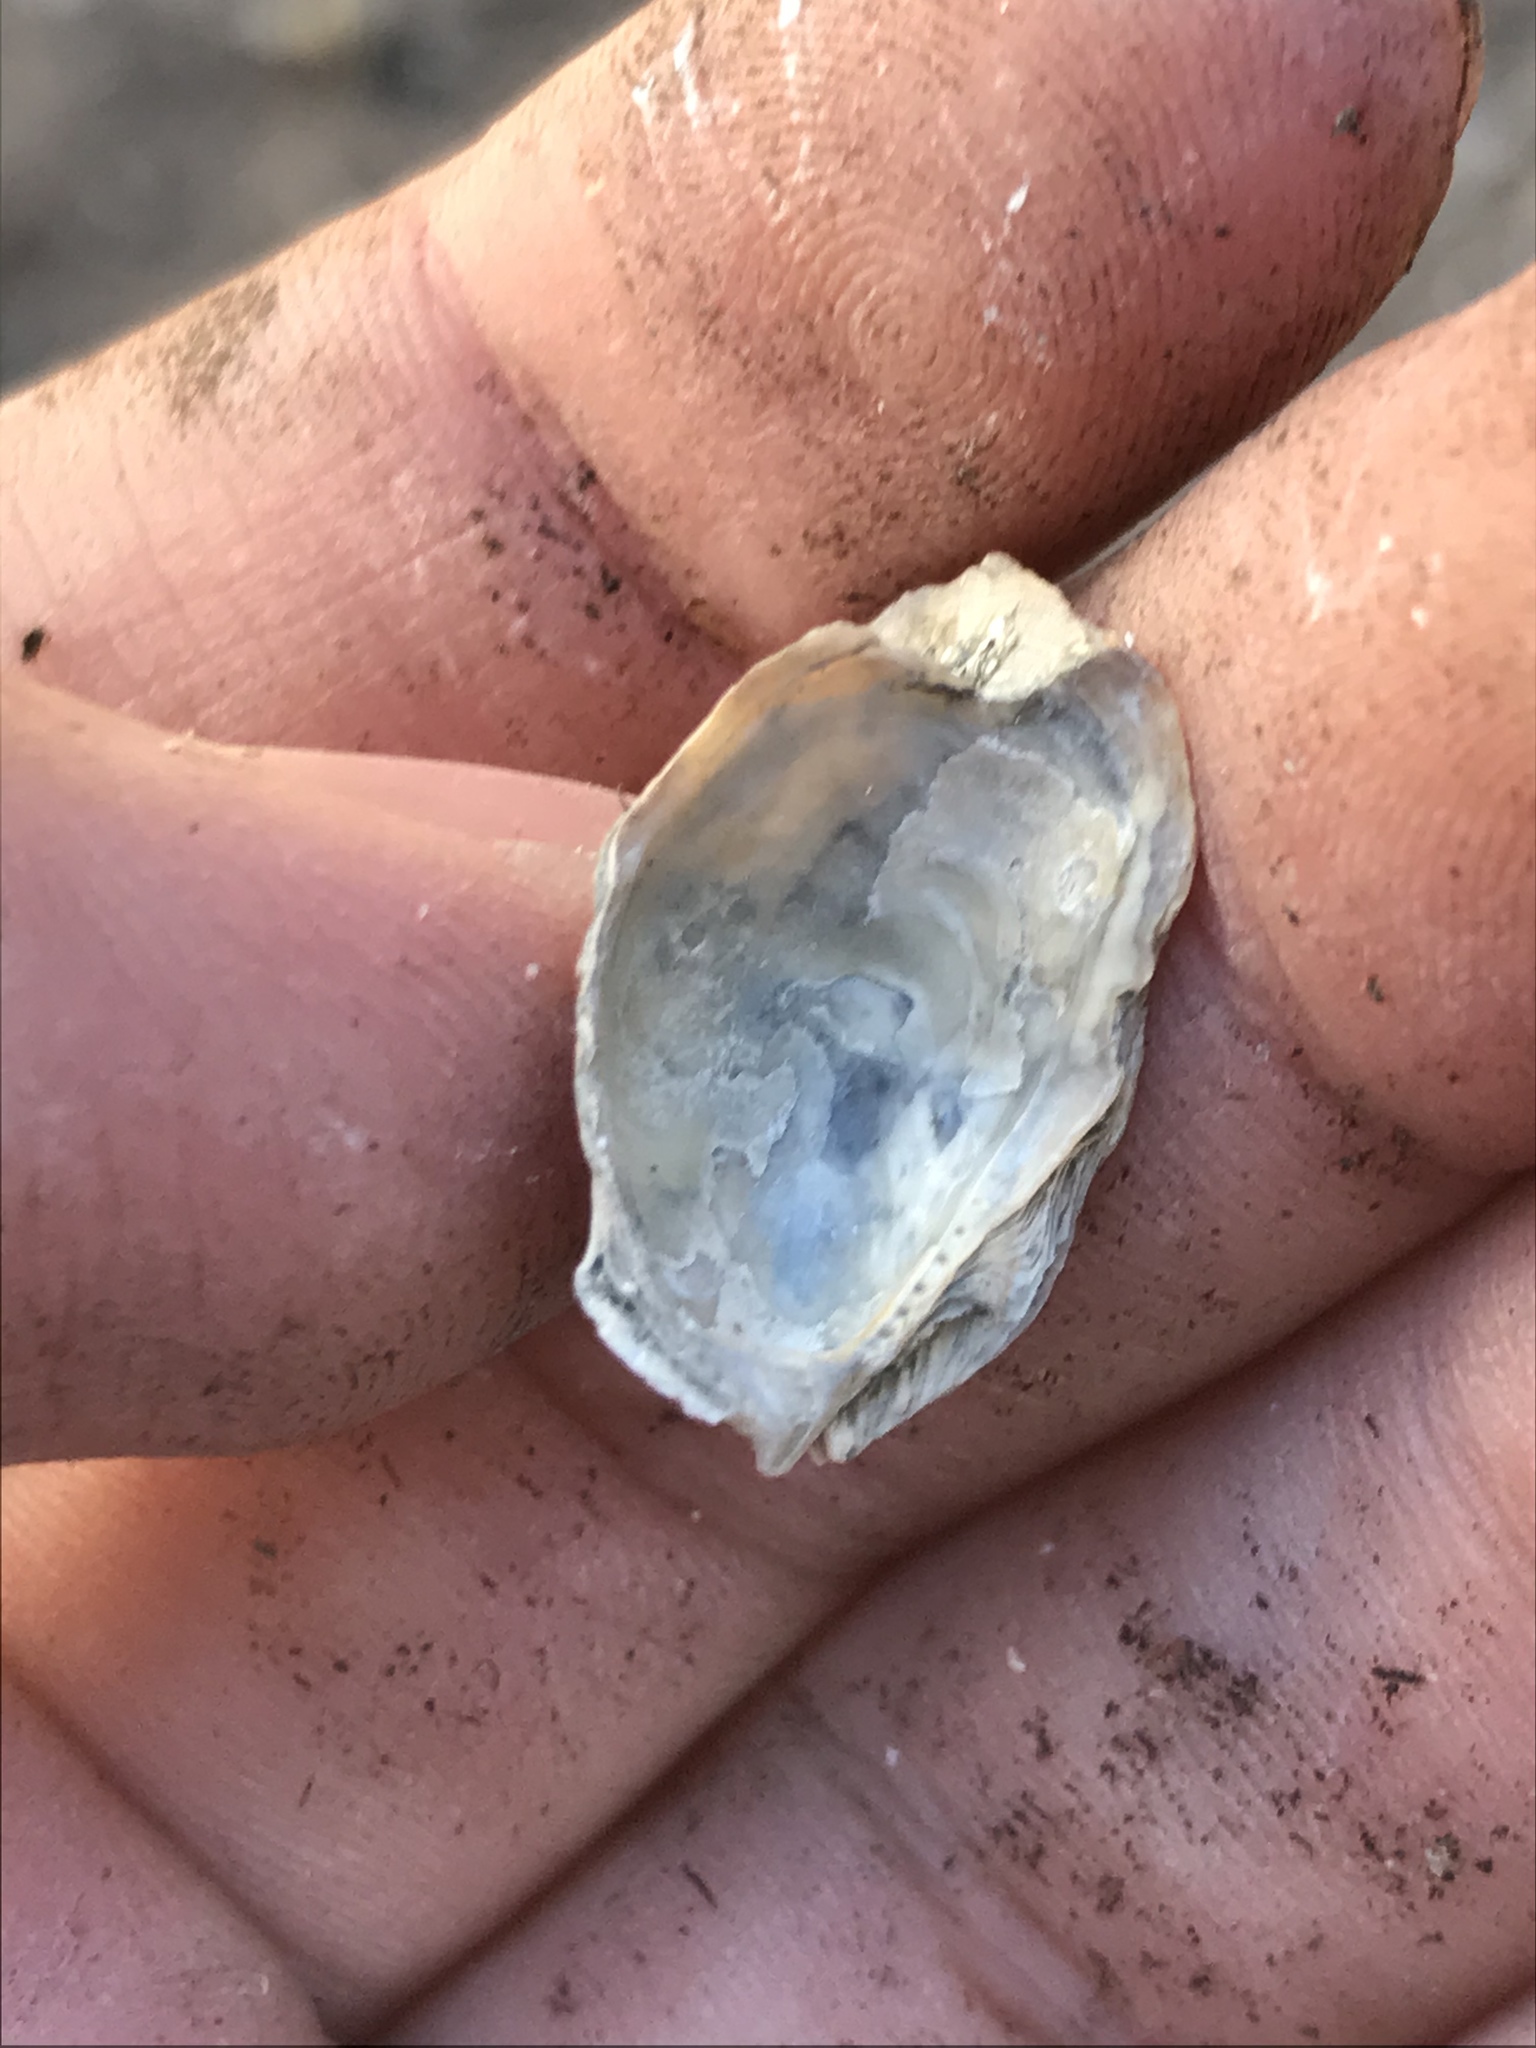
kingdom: Animalia
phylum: Mollusca
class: Bivalvia
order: Ostreida
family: Ostreidae
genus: Ostrea
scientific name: Ostrea lurida
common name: Olympia flat oyster
